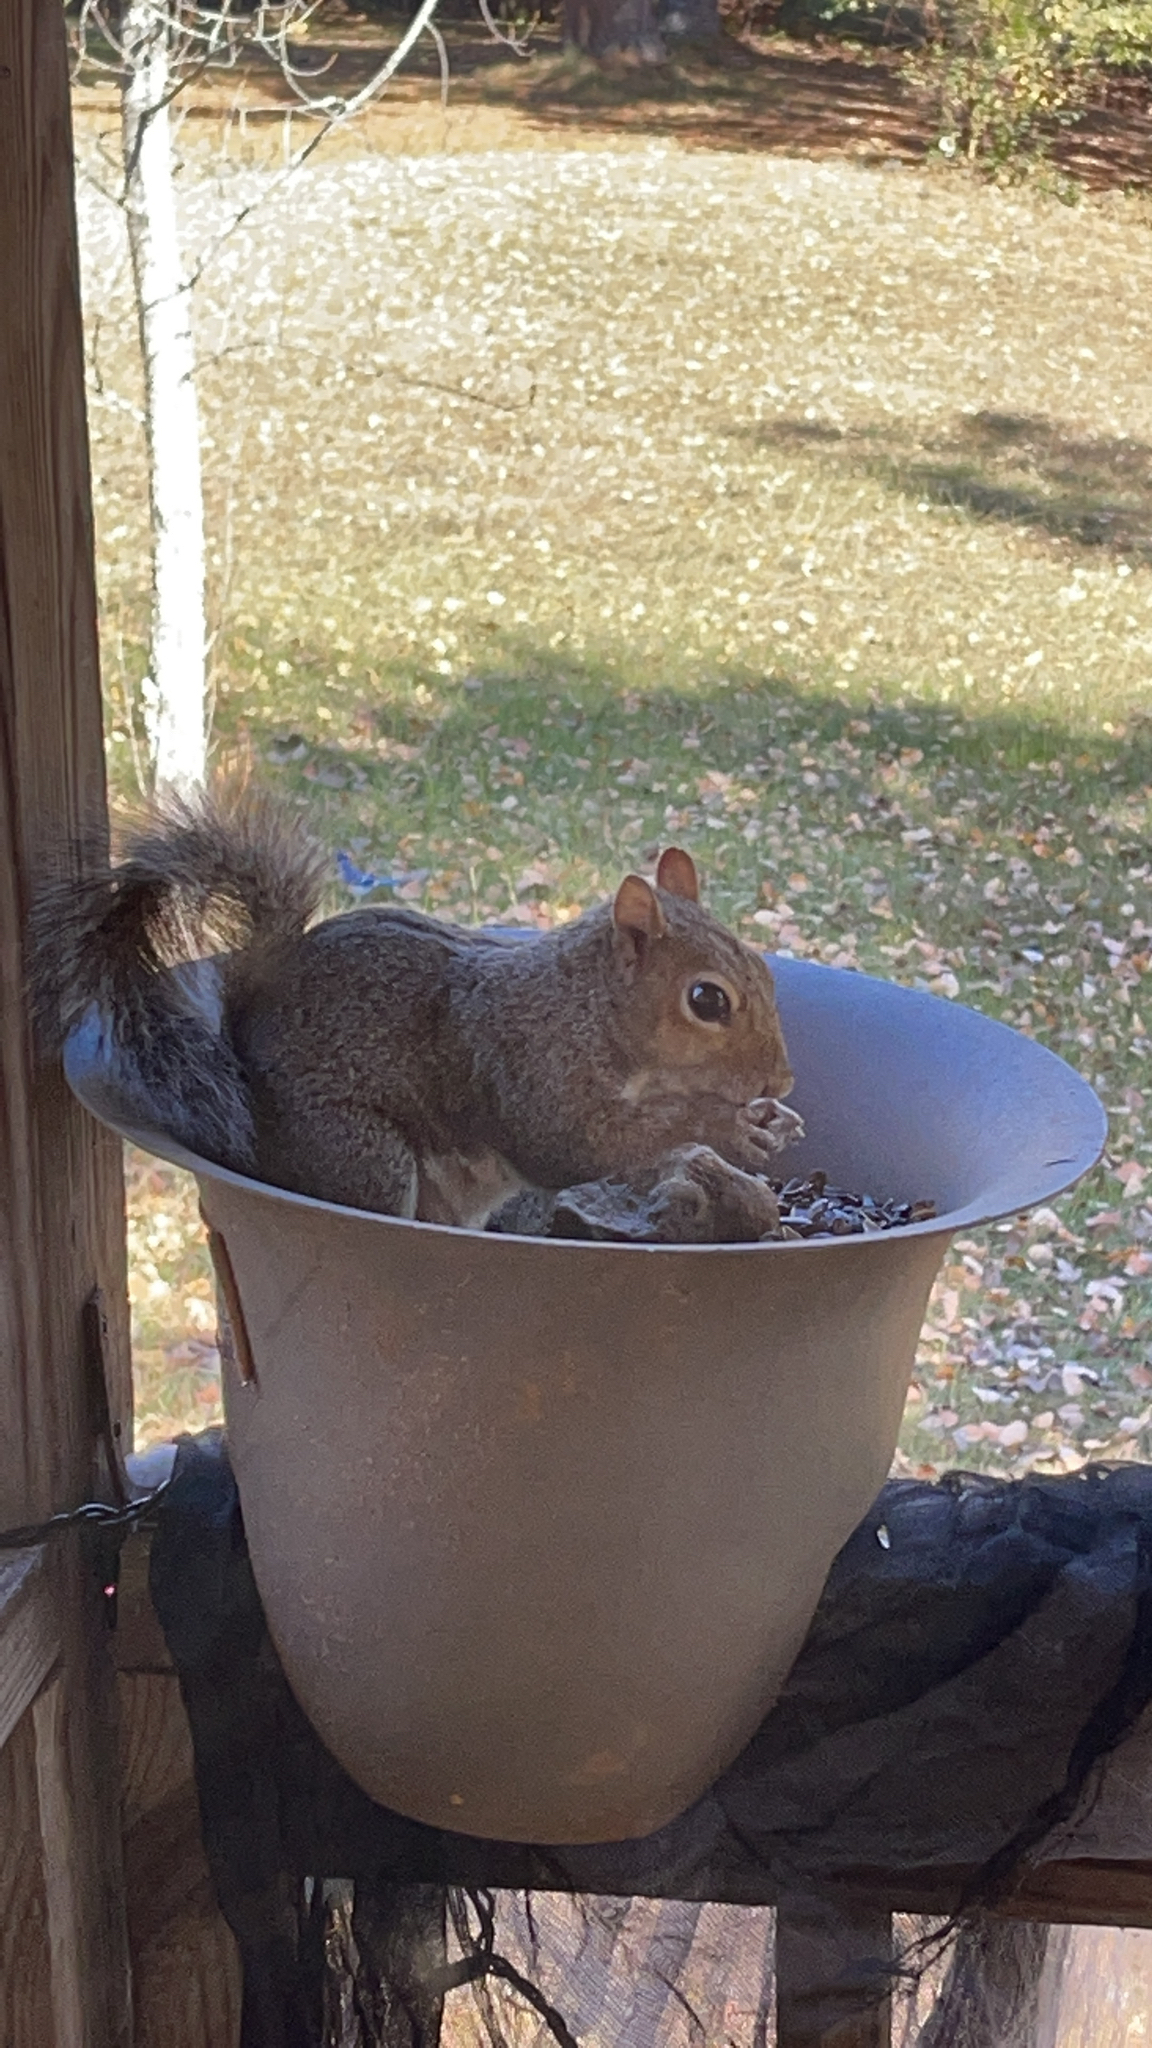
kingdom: Animalia
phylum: Chordata
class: Mammalia
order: Rodentia
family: Sciuridae
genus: Sciurus
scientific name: Sciurus carolinensis
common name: Eastern gray squirrel
